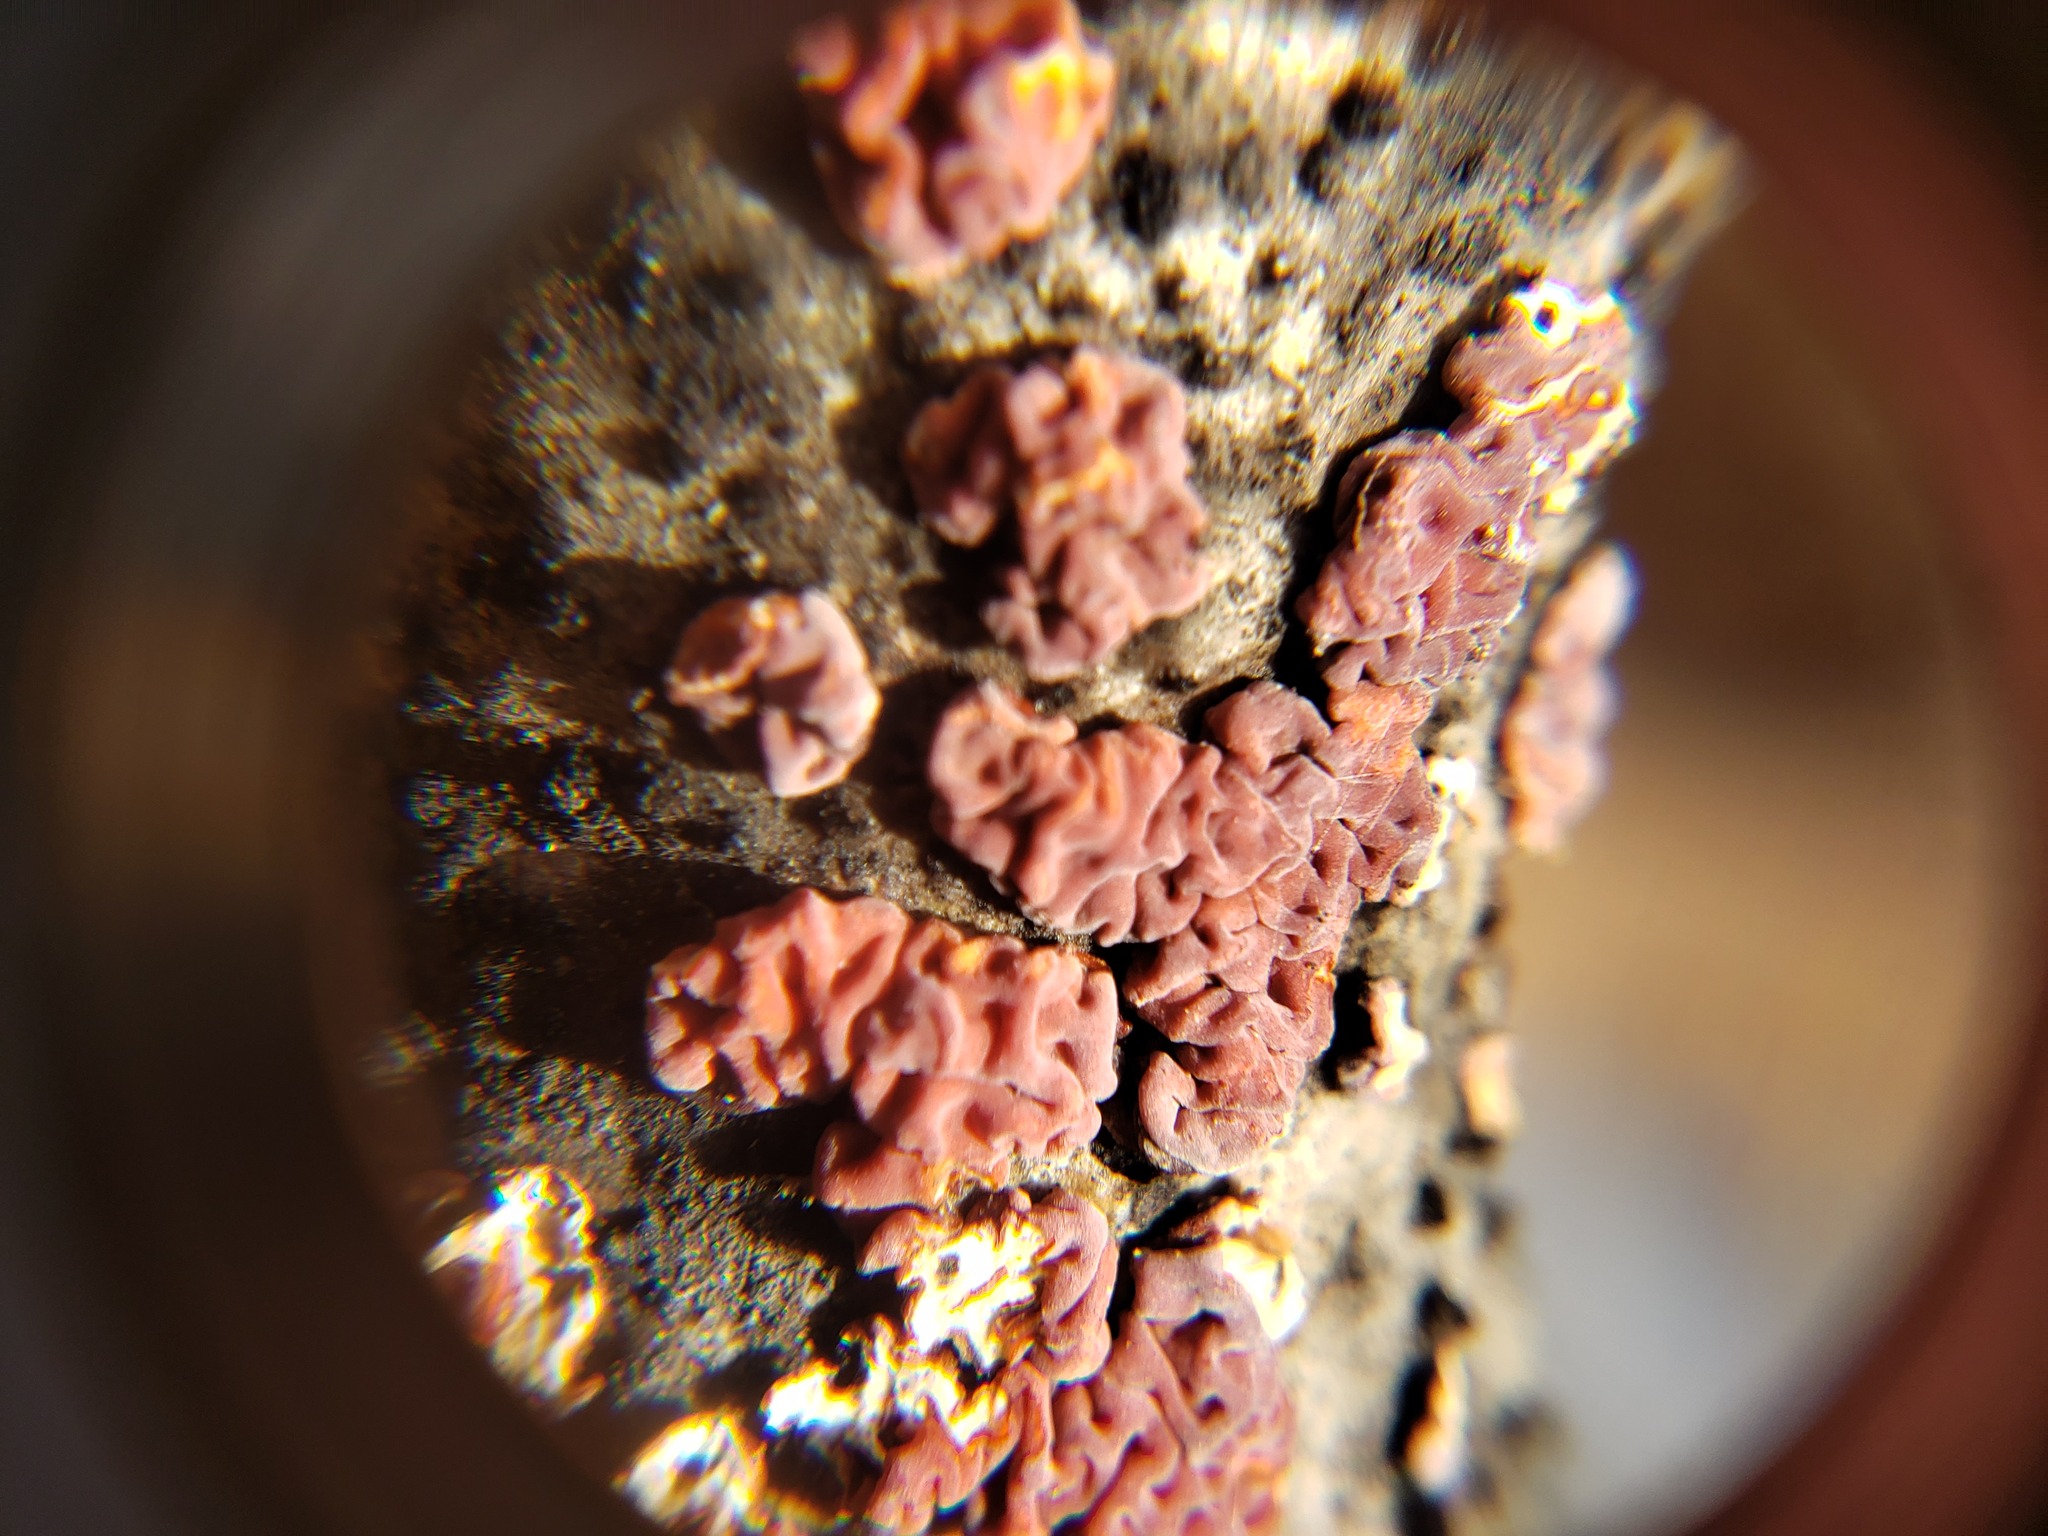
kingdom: Fungi
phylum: Basidiomycota
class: Agaricomycetes
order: Russulales
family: Peniophoraceae
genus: Peniophora
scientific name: Peniophora rufa
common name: Red tree brain fungus
